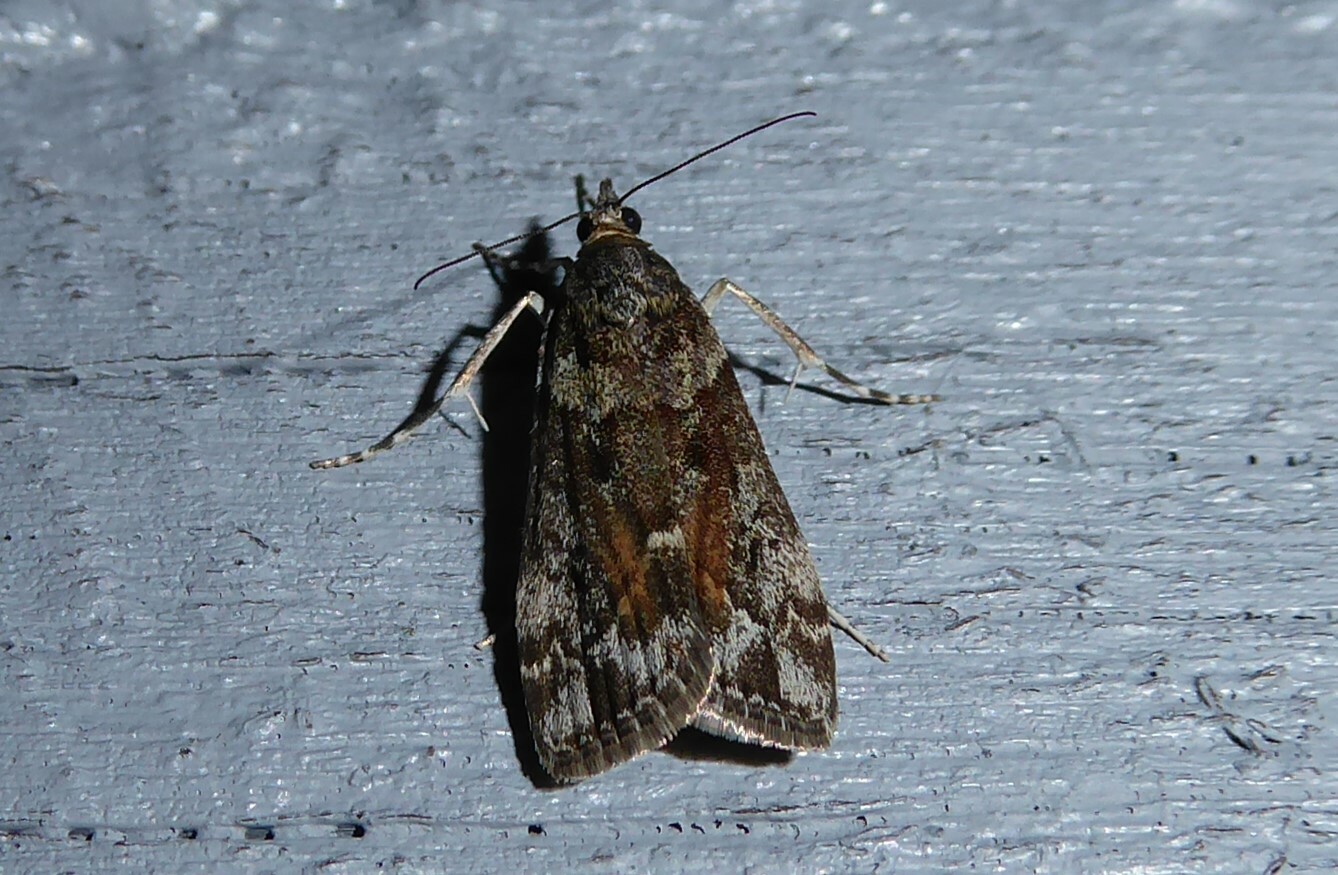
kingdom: Animalia
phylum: Arthropoda
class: Insecta
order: Lepidoptera
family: Crambidae
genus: Eudonia
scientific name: Eudonia submarginalis
